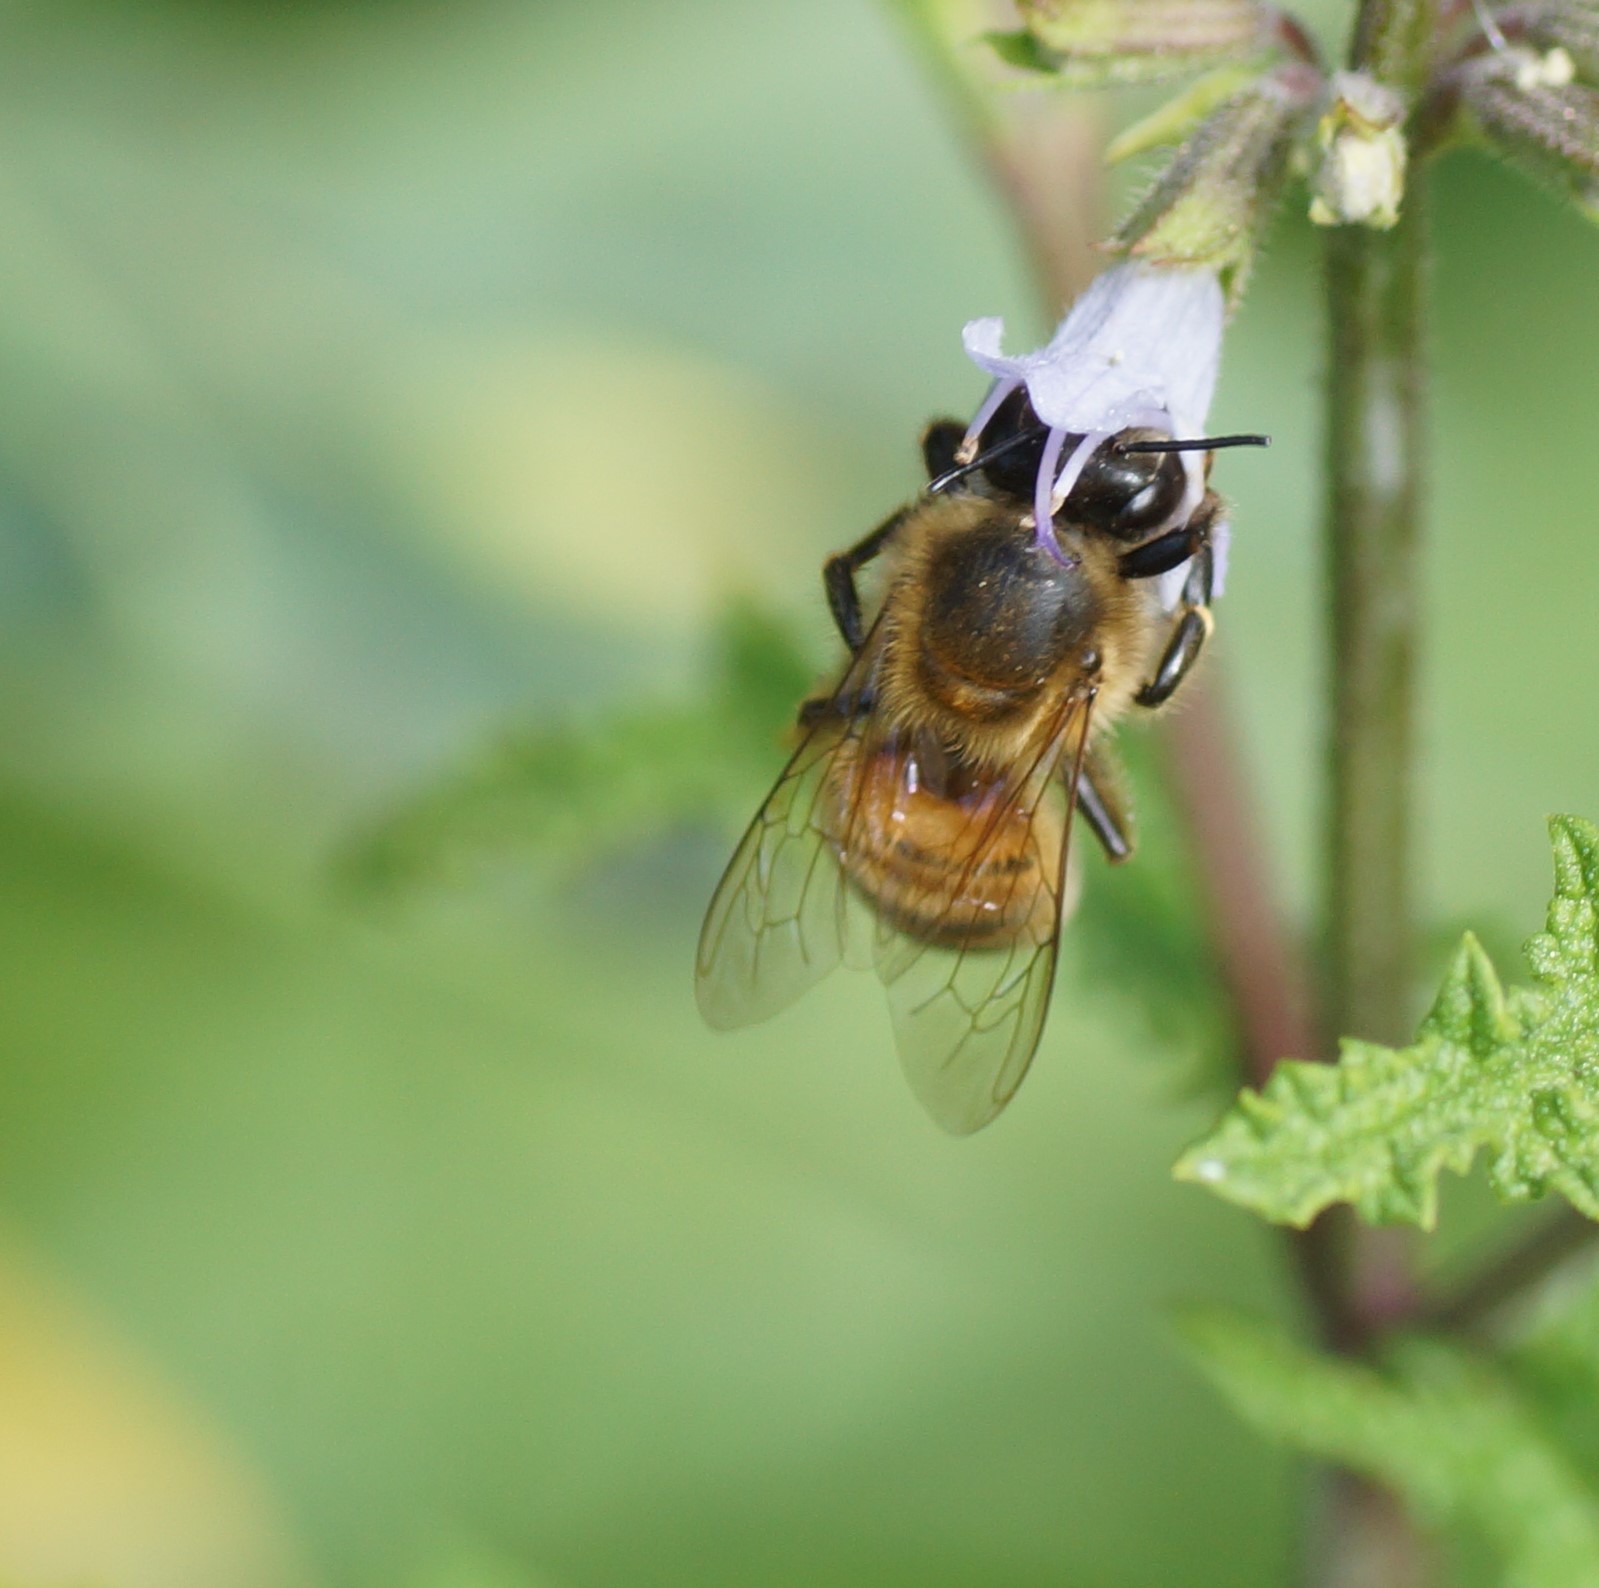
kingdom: Animalia
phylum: Arthropoda
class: Insecta
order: Hymenoptera
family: Apidae
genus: Apis
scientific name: Apis mellifera
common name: Honey bee
